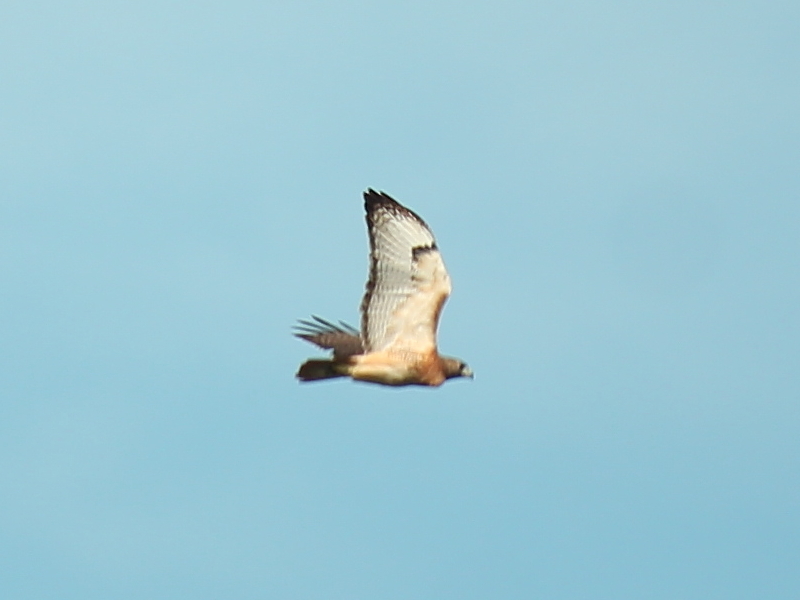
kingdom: Animalia
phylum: Chordata
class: Aves
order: Accipitriformes
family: Accipitridae
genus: Buteo
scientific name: Buteo jamaicensis
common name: Red-tailed hawk
